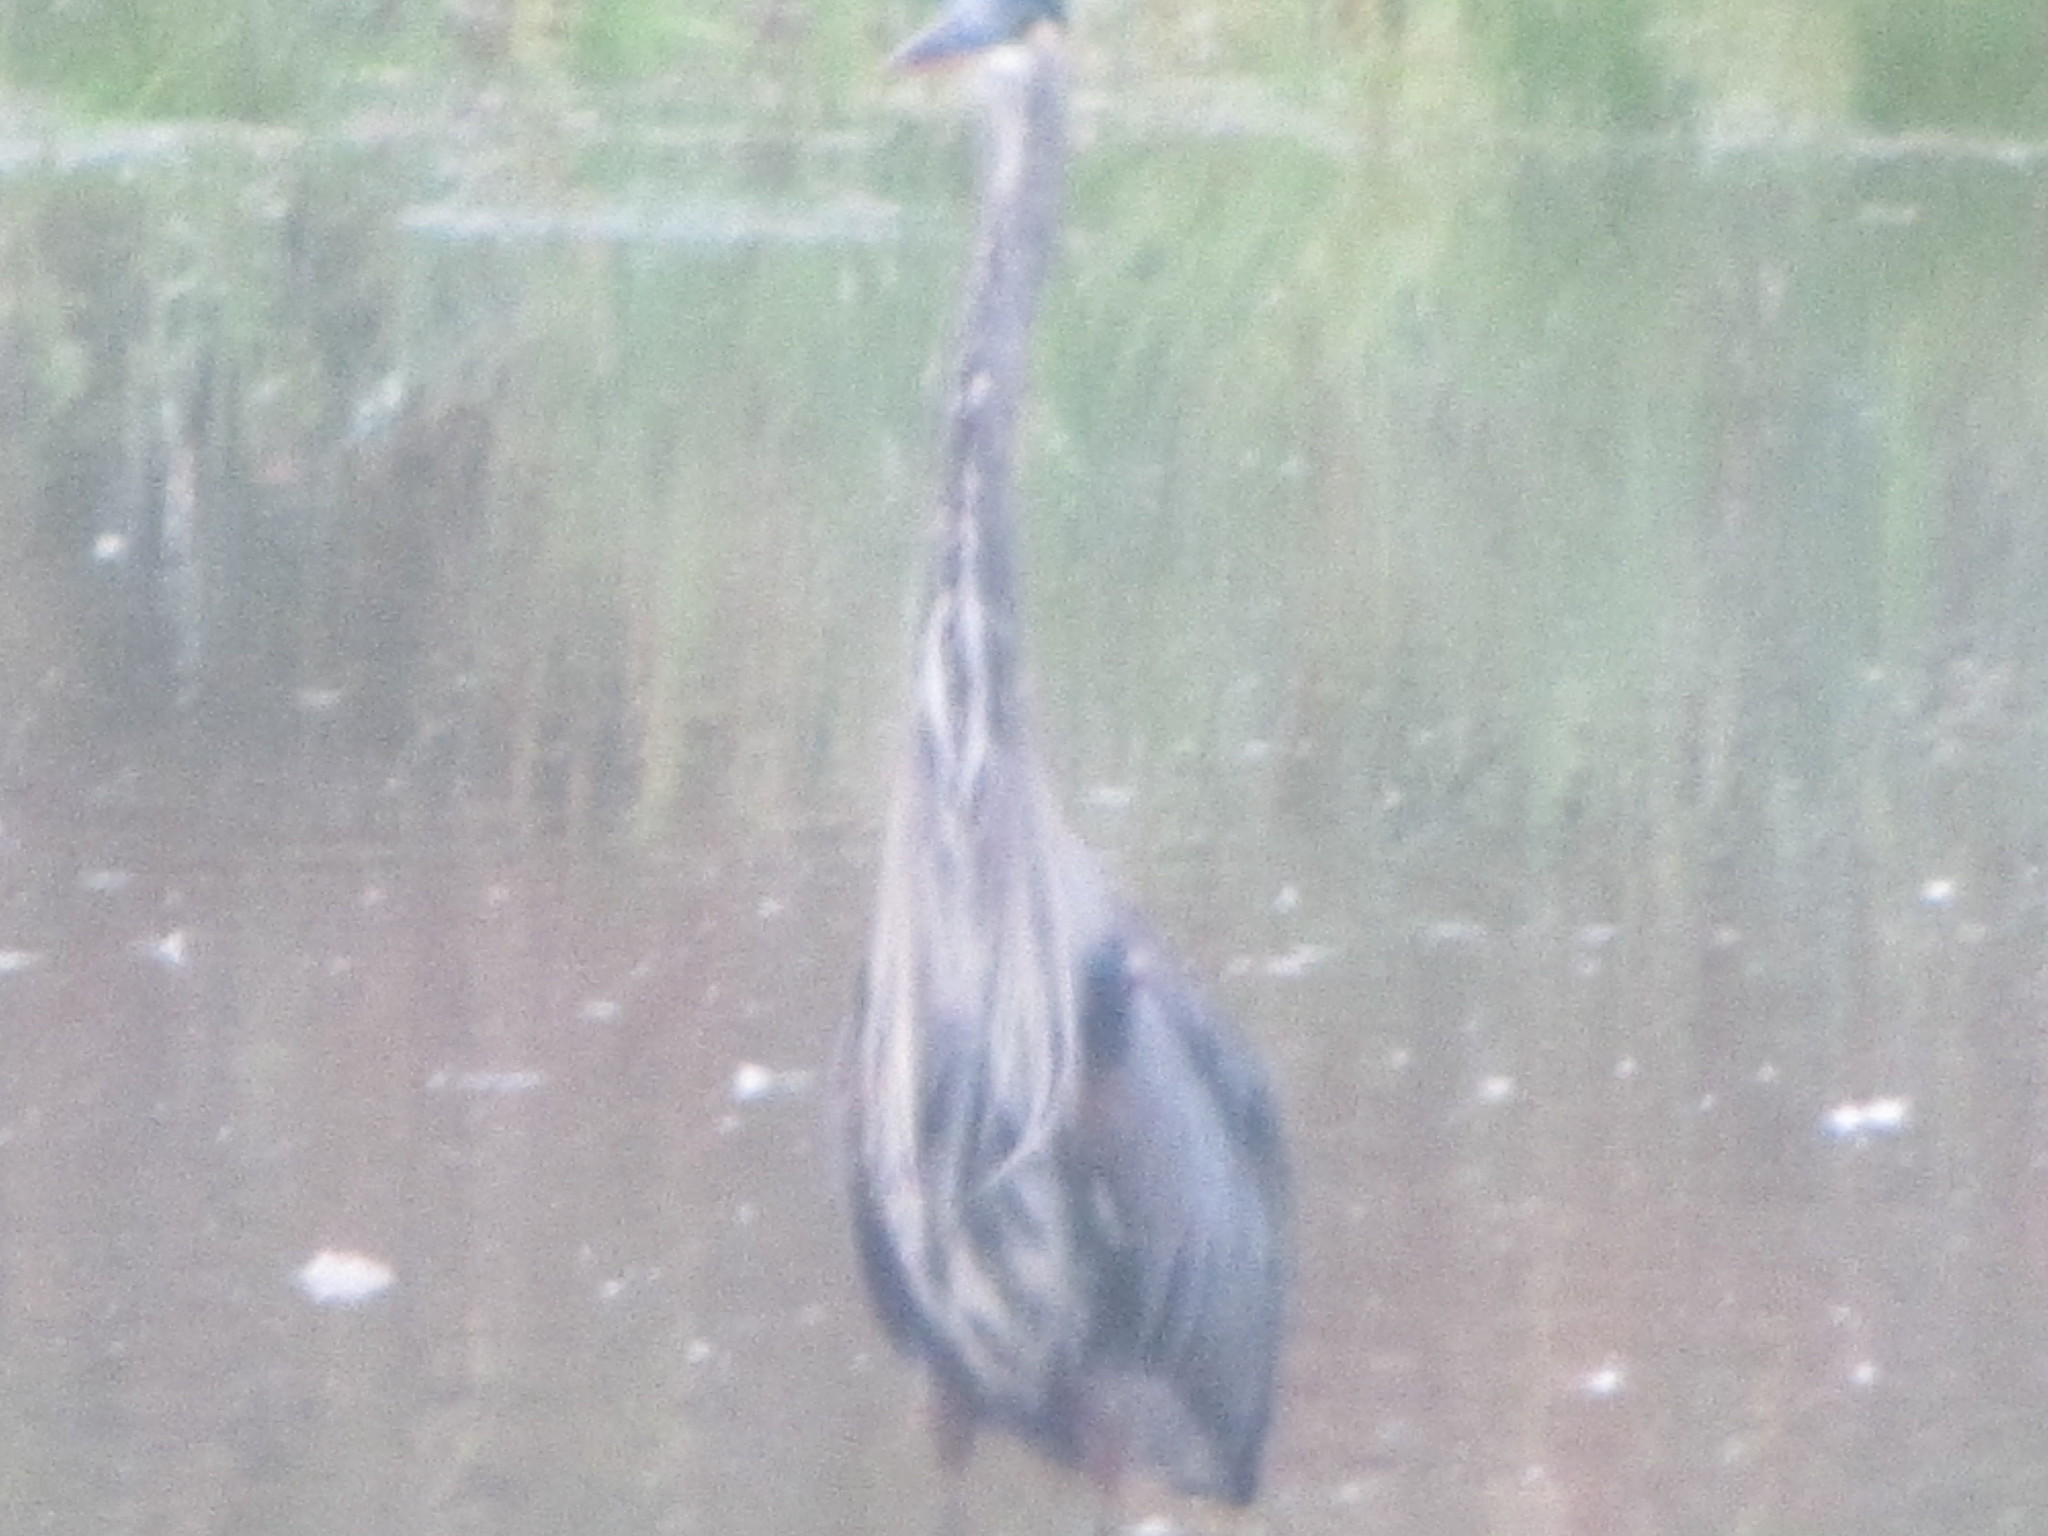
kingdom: Animalia
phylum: Chordata
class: Aves
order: Pelecaniformes
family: Ardeidae
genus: Ardea
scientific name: Ardea herodias
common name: Great blue heron
